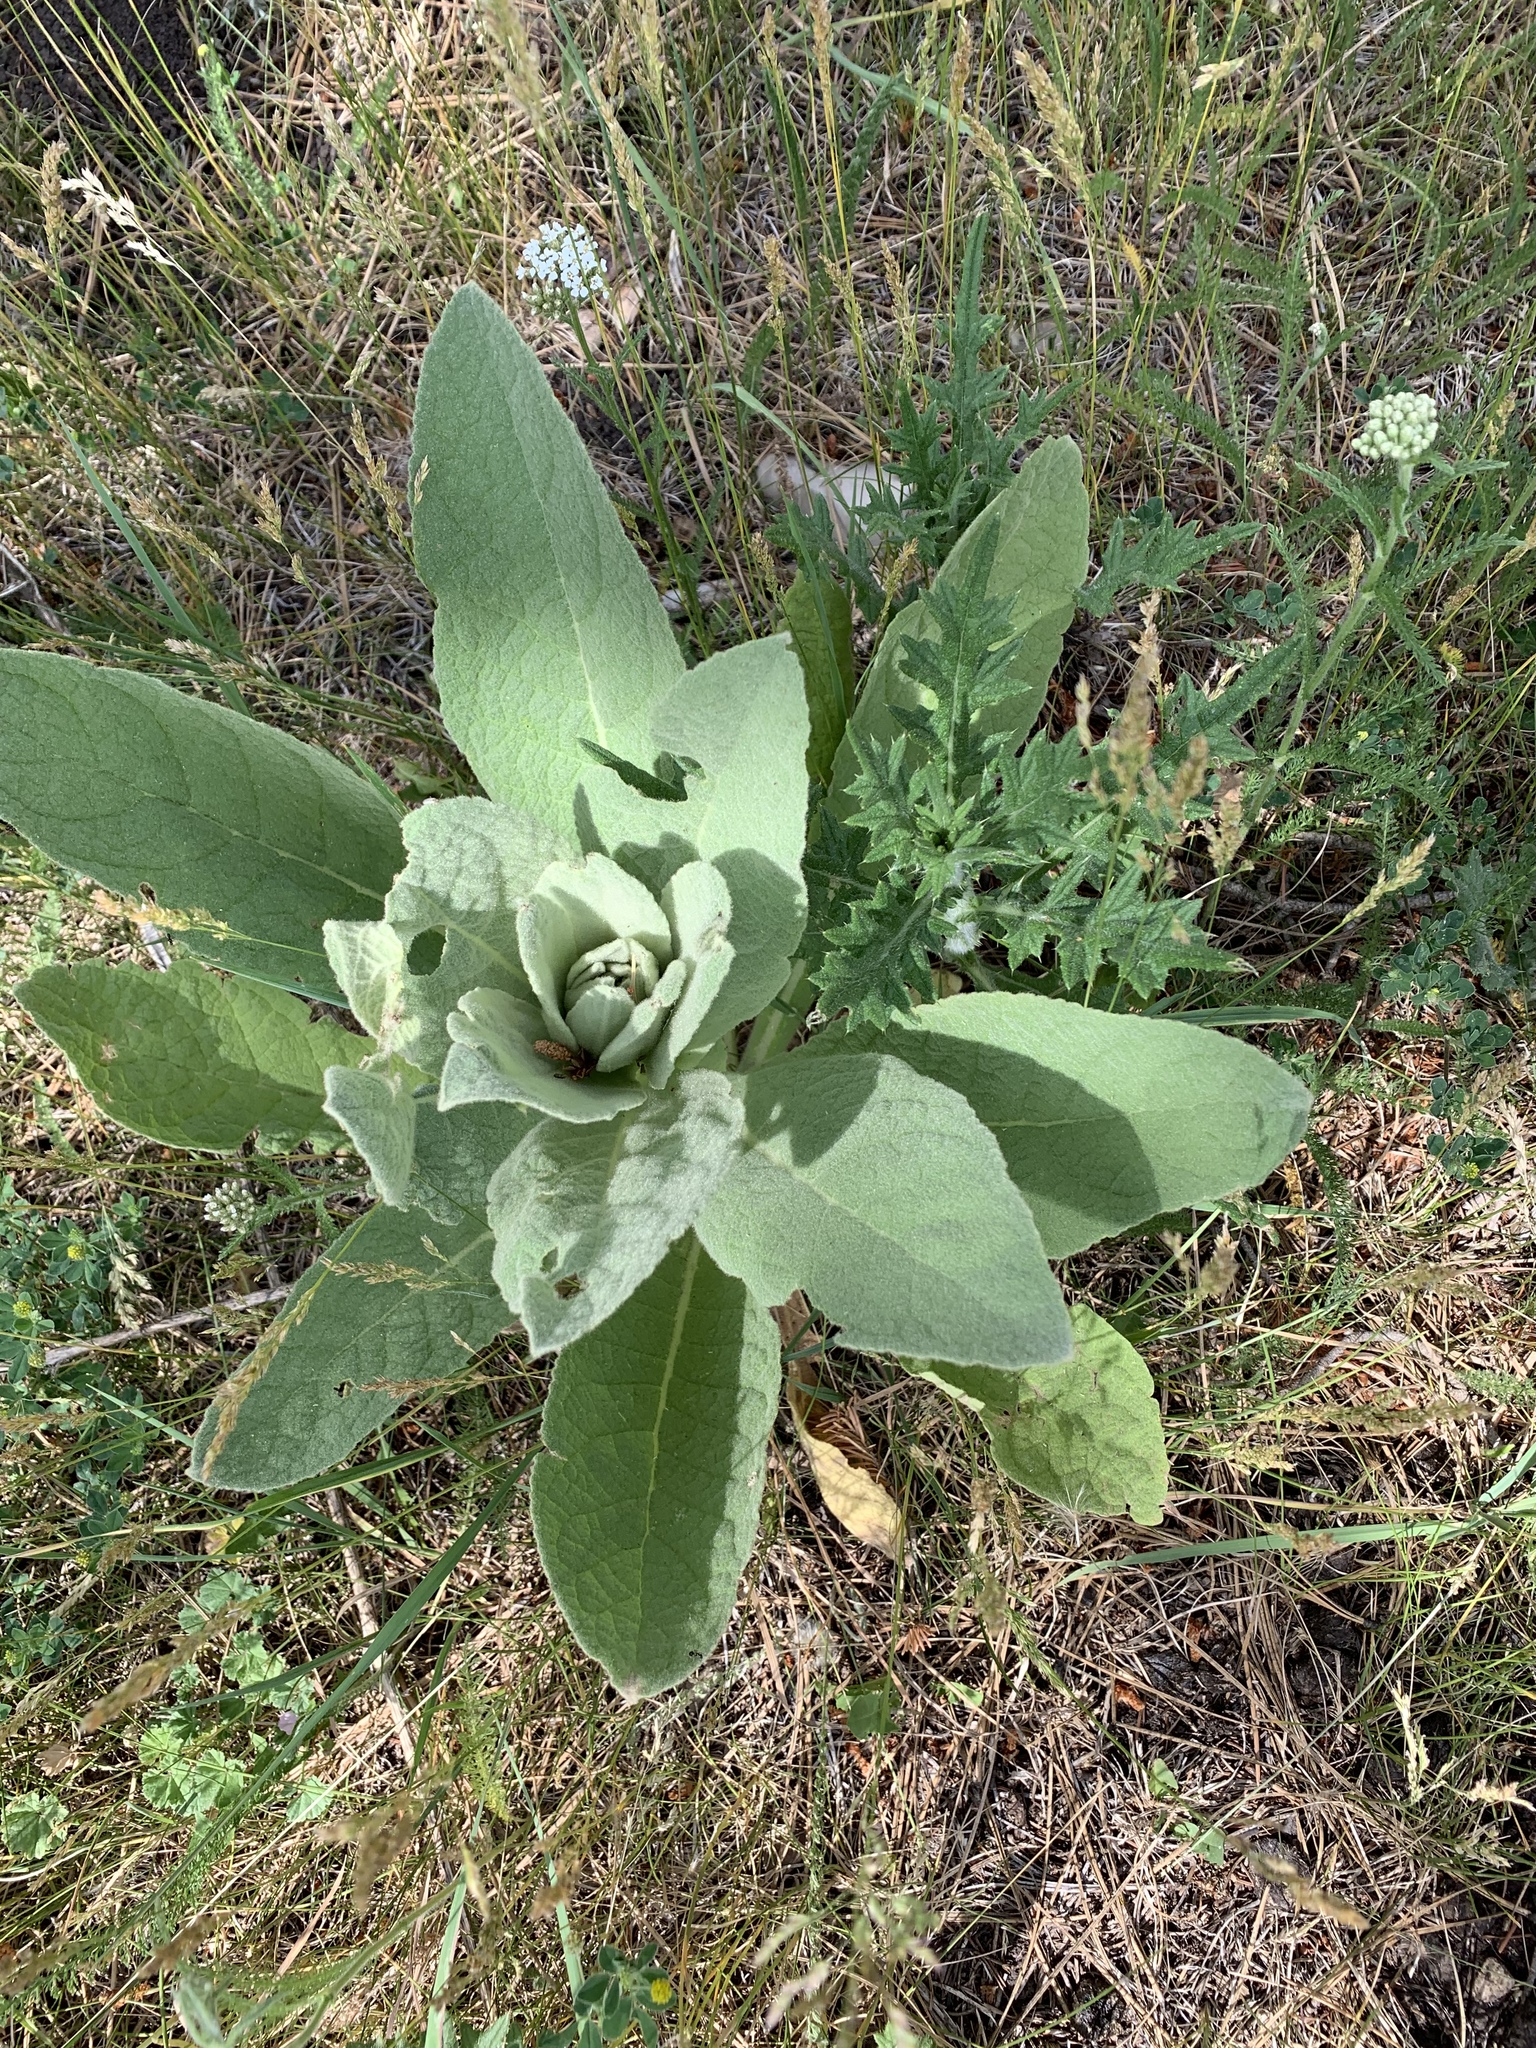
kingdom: Plantae
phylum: Tracheophyta
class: Magnoliopsida
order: Lamiales
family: Scrophulariaceae
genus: Verbascum
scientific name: Verbascum thapsus
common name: Common mullein
